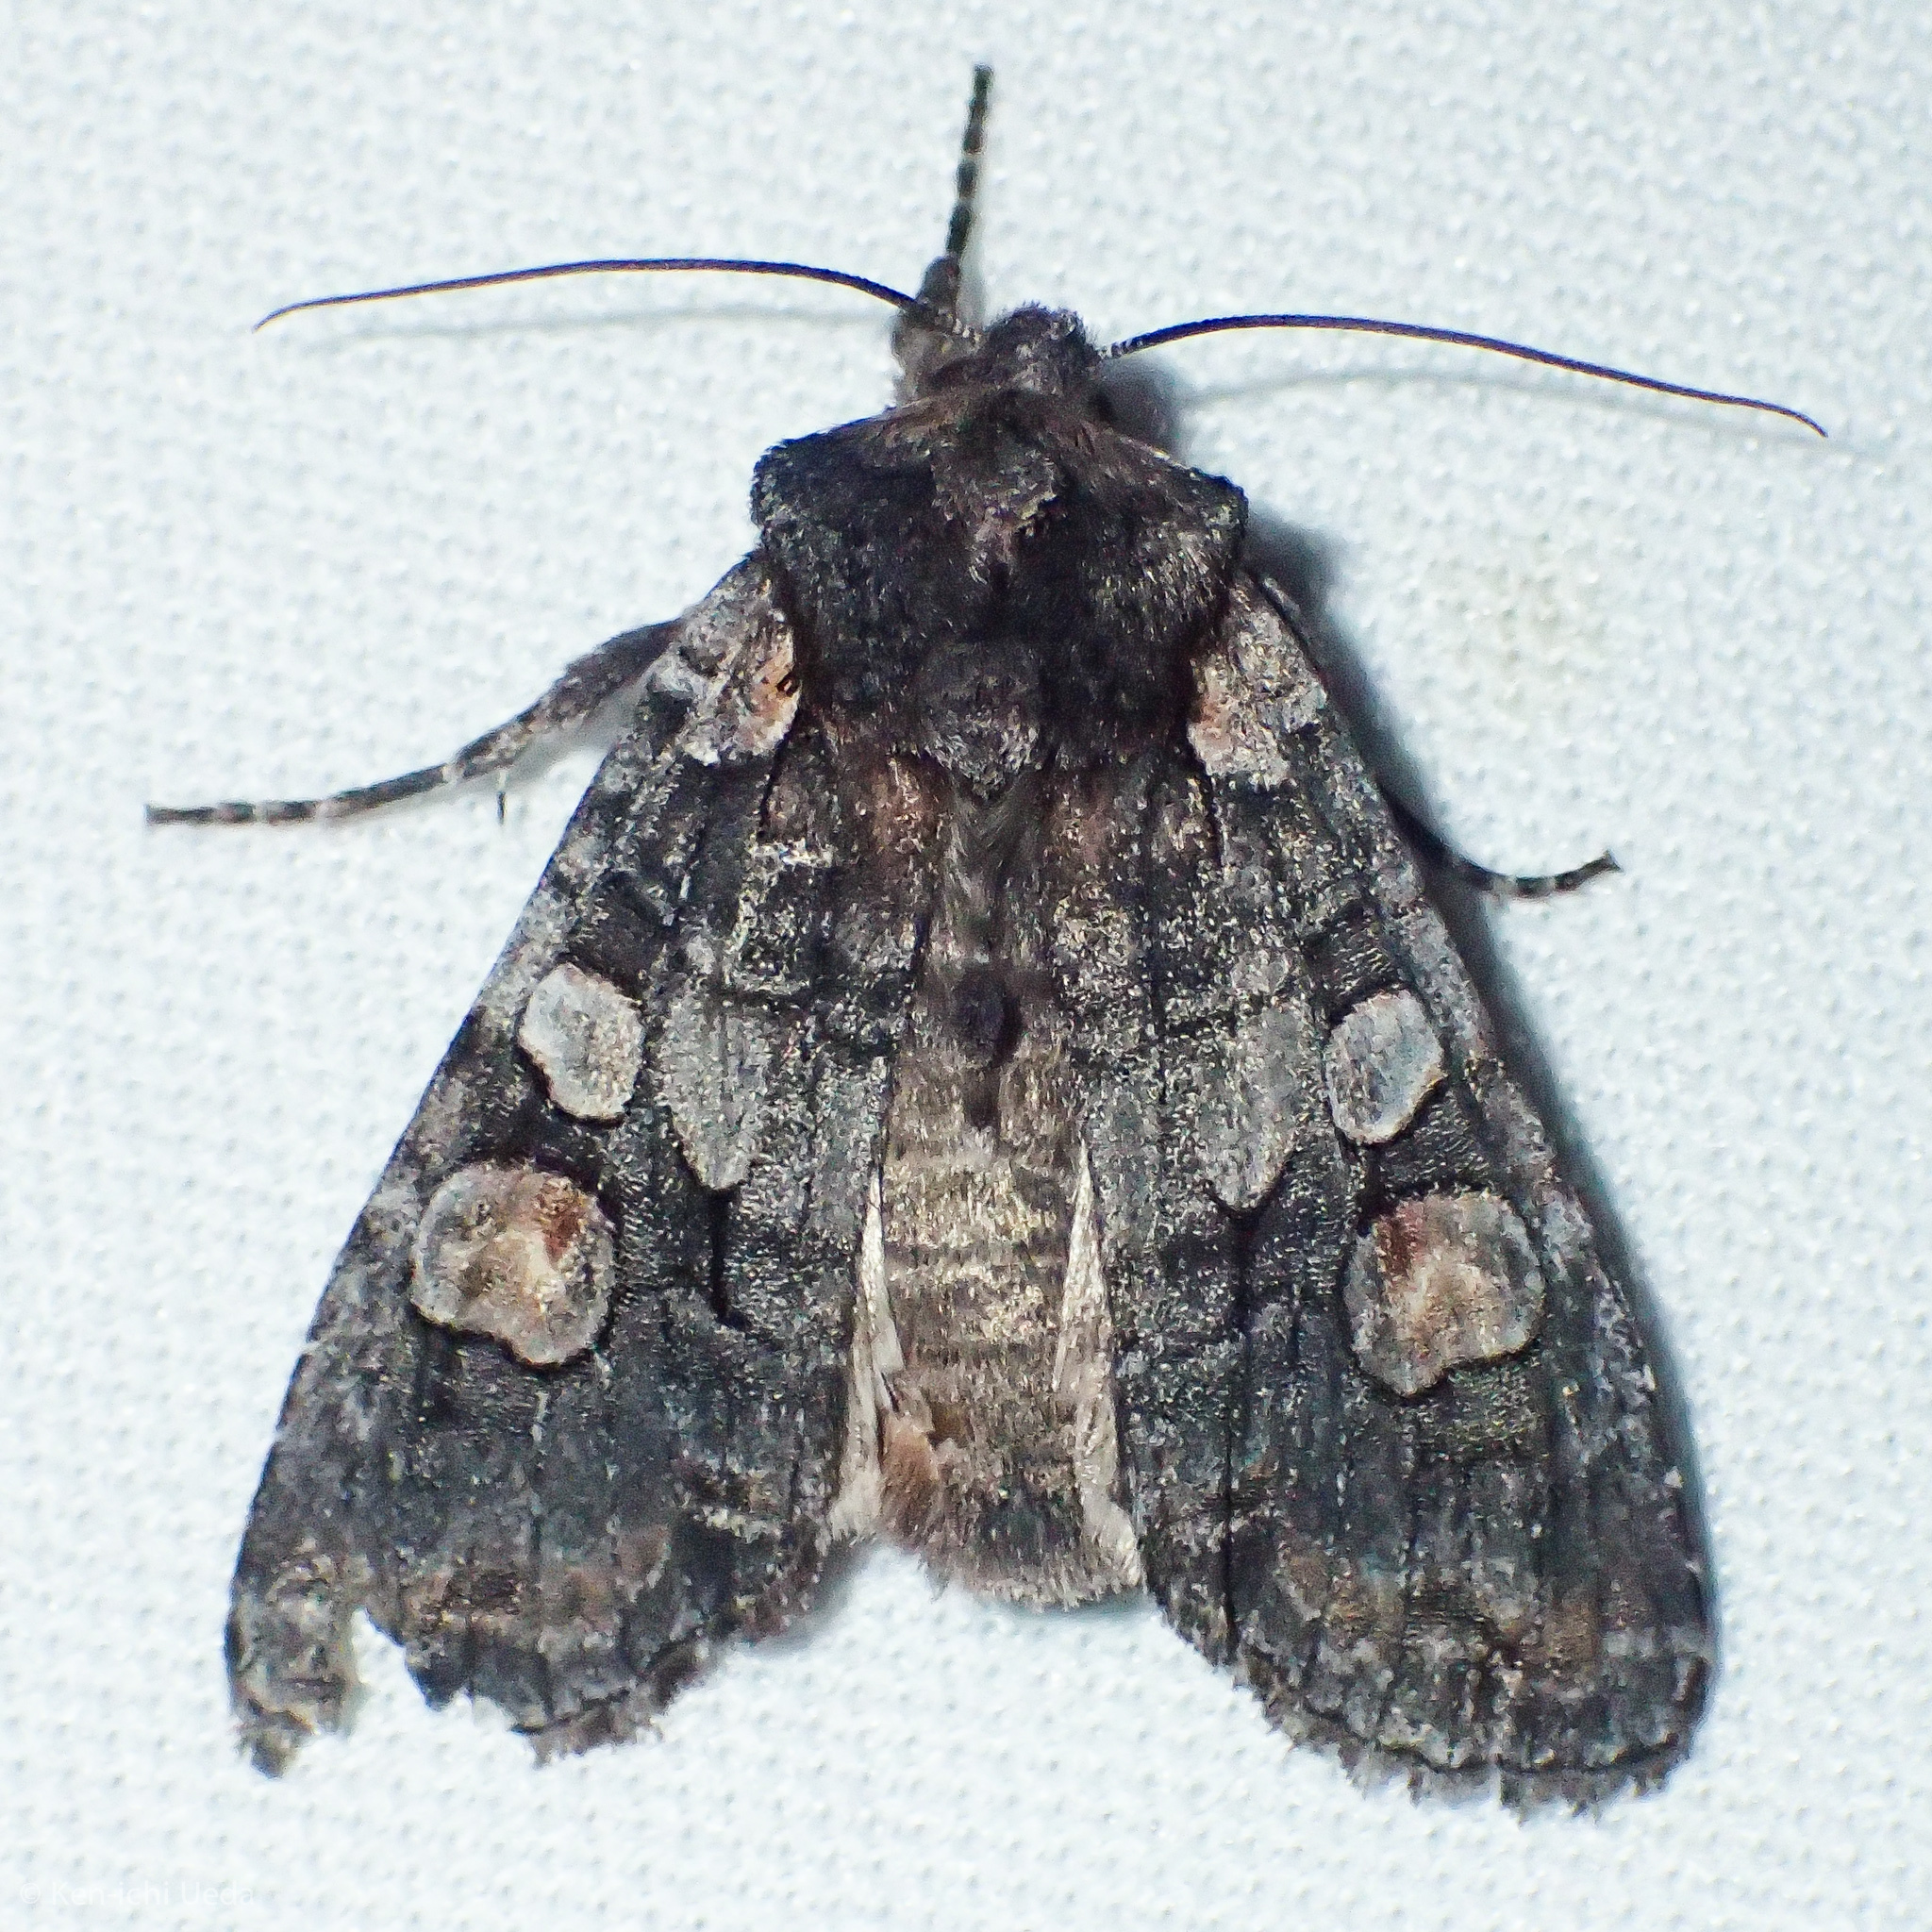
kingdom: Animalia
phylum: Arthropoda
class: Insecta
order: Lepidoptera
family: Noctuidae
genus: Lithophane
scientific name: Lithophane dilatocula
